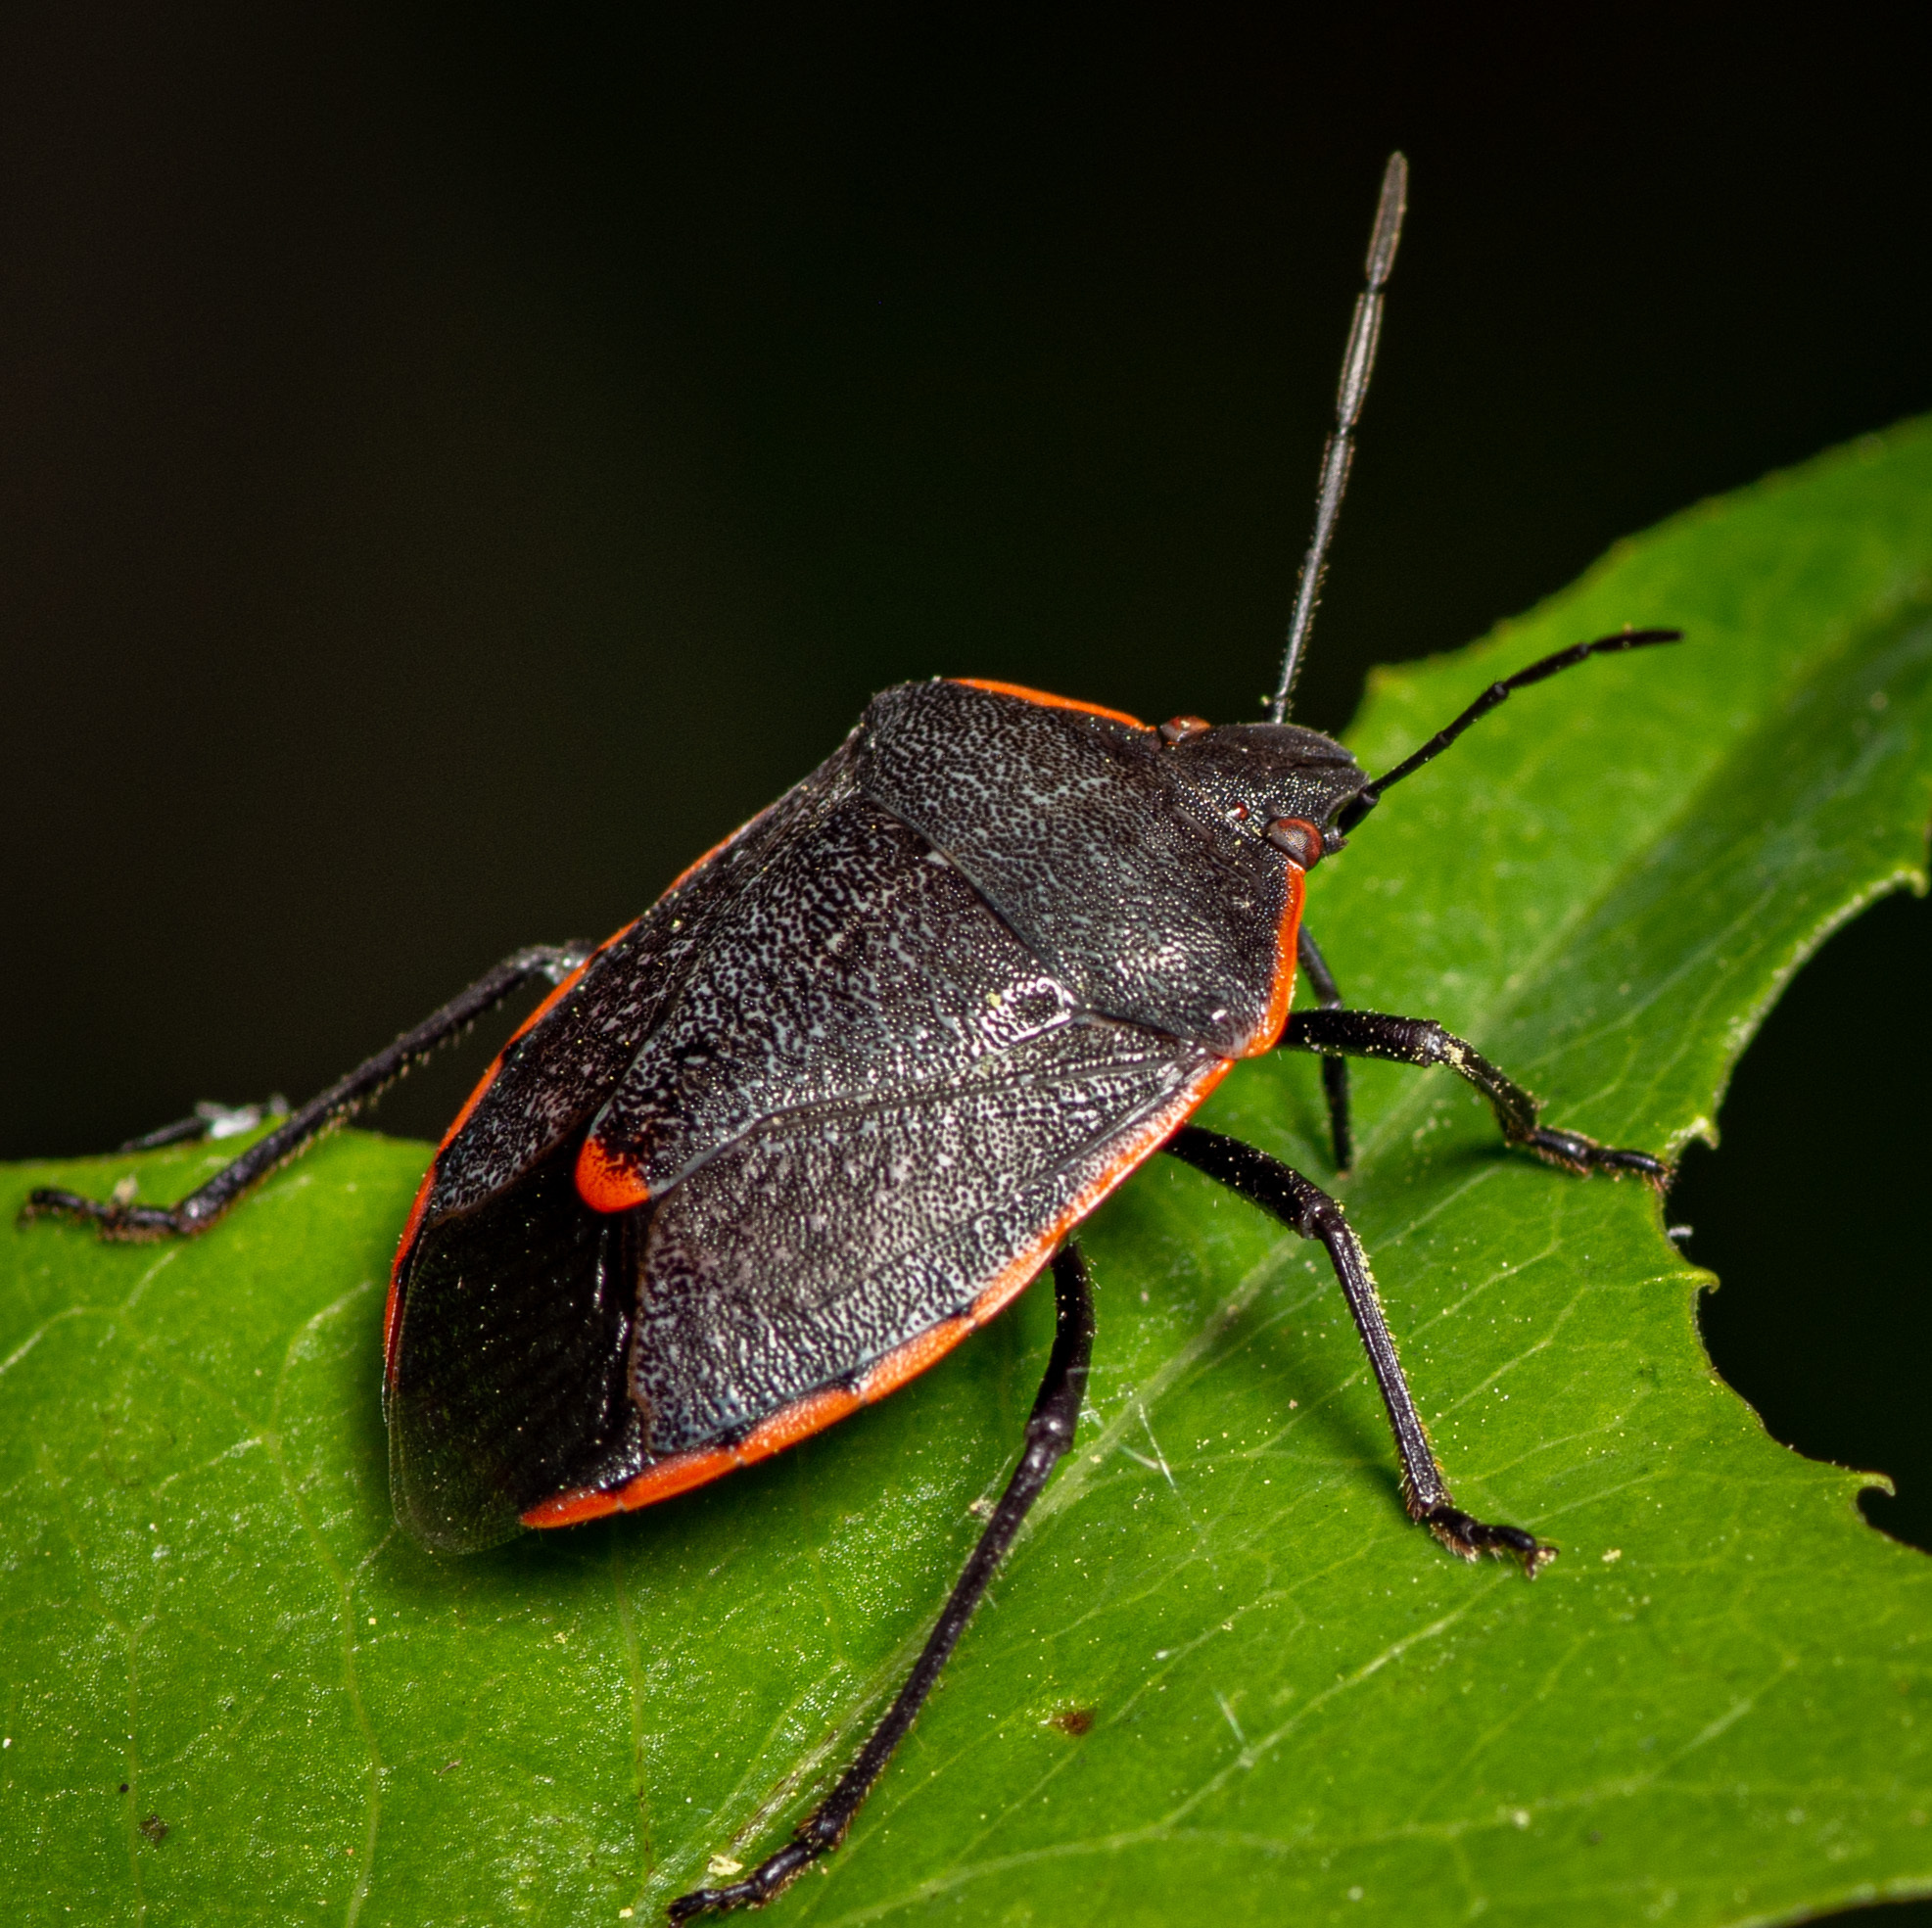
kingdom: Animalia
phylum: Arthropoda
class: Insecta
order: Hemiptera
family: Pentatomidae
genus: Chlorochroa
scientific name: Chlorochroa ligata
